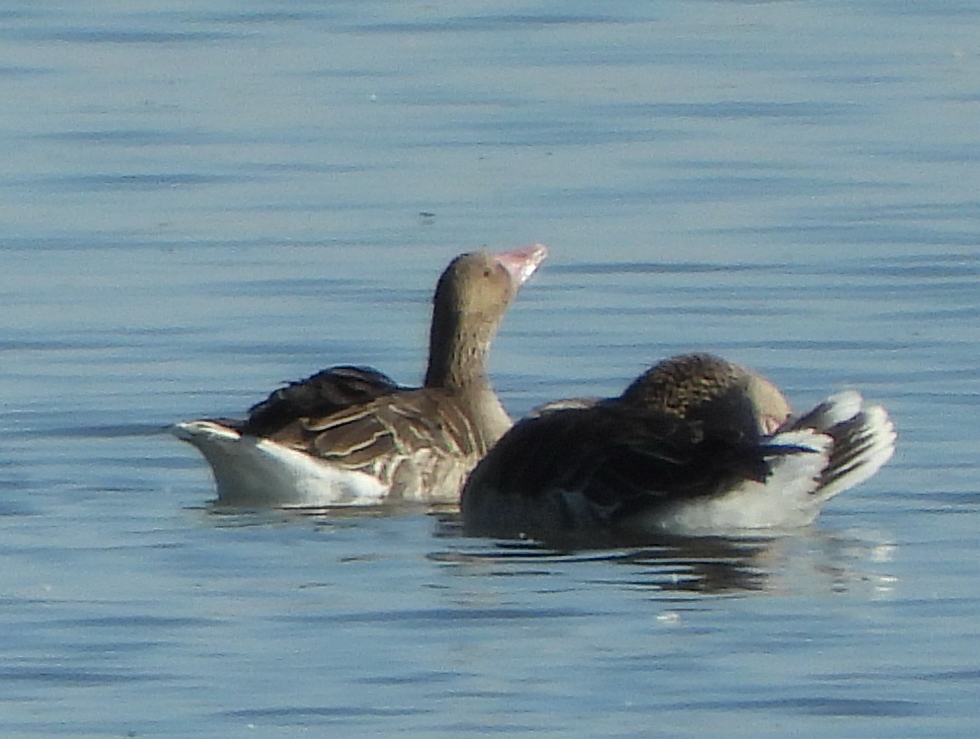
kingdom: Animalia
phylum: Chordata
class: Aves
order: Anseriformes
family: Anatidae
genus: Anser
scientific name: Anser anser
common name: Greylag goose
